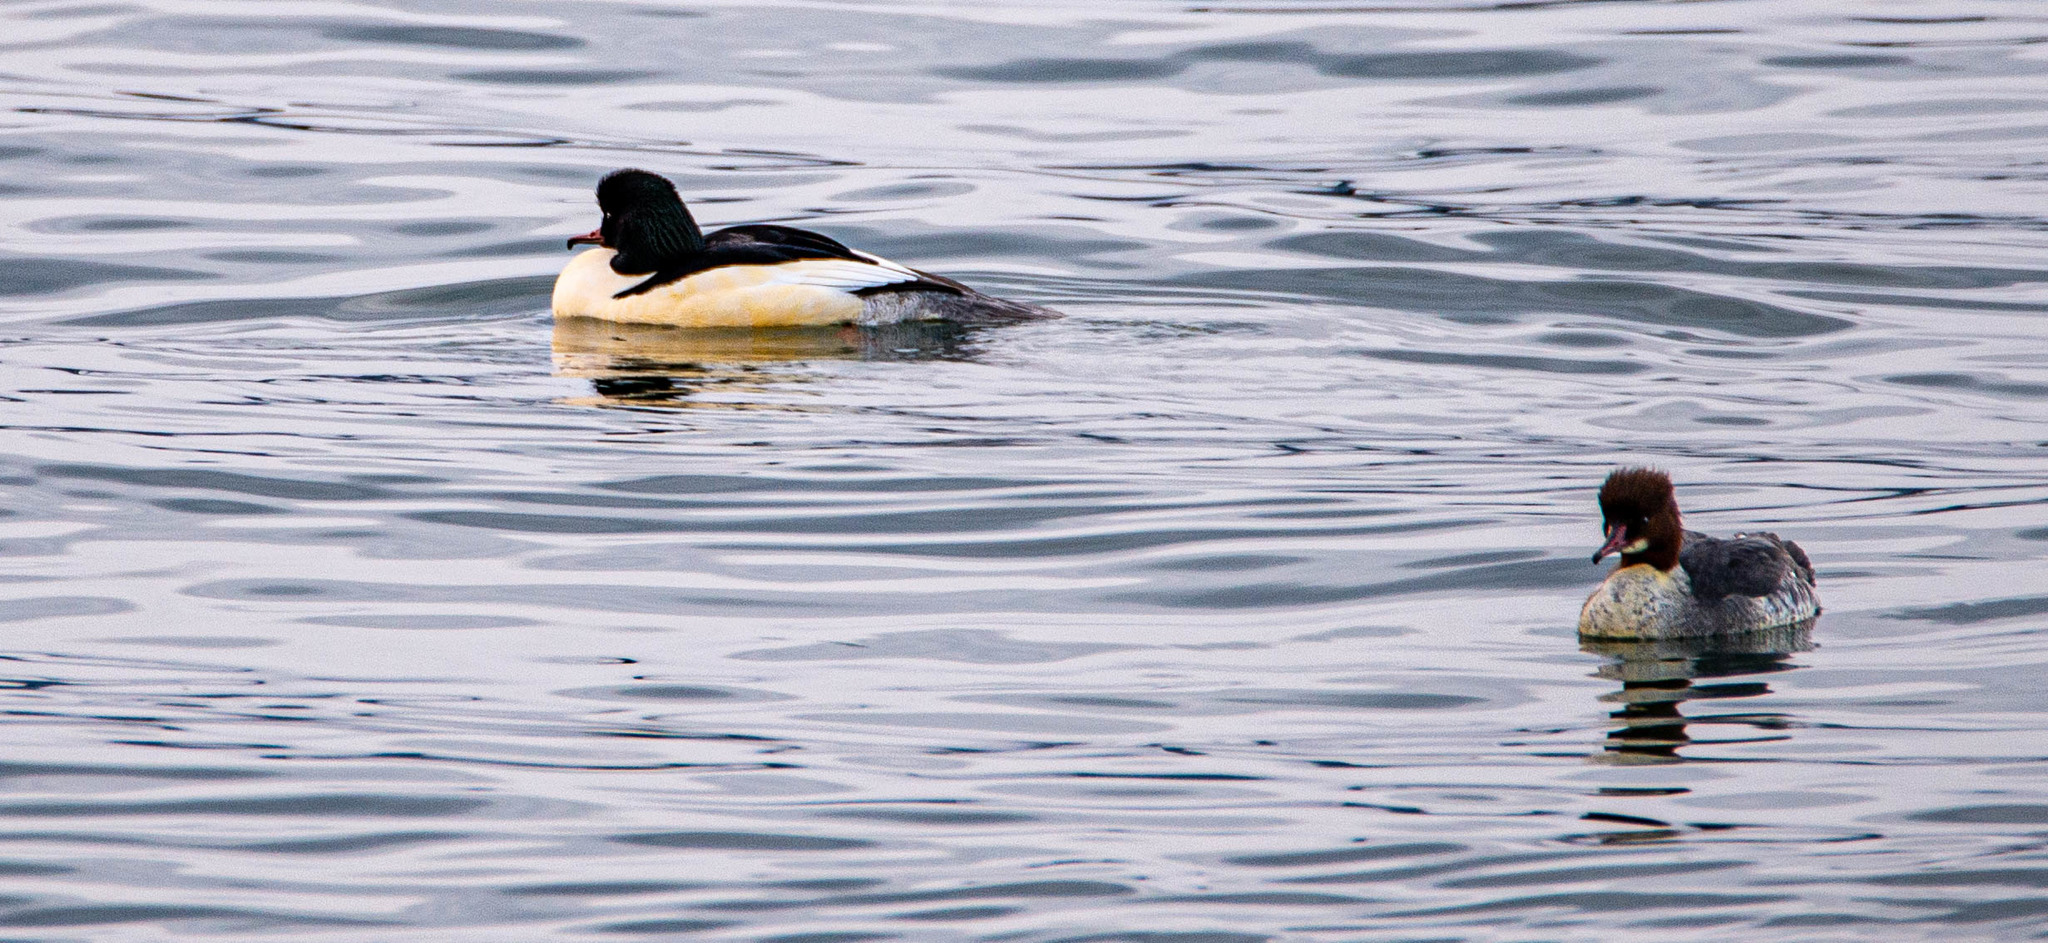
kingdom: Animalia
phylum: Chordata
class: Aves
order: Anseriformes
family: Anatidae
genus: Mergus
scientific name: Mergus merganser
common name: Common merganser
